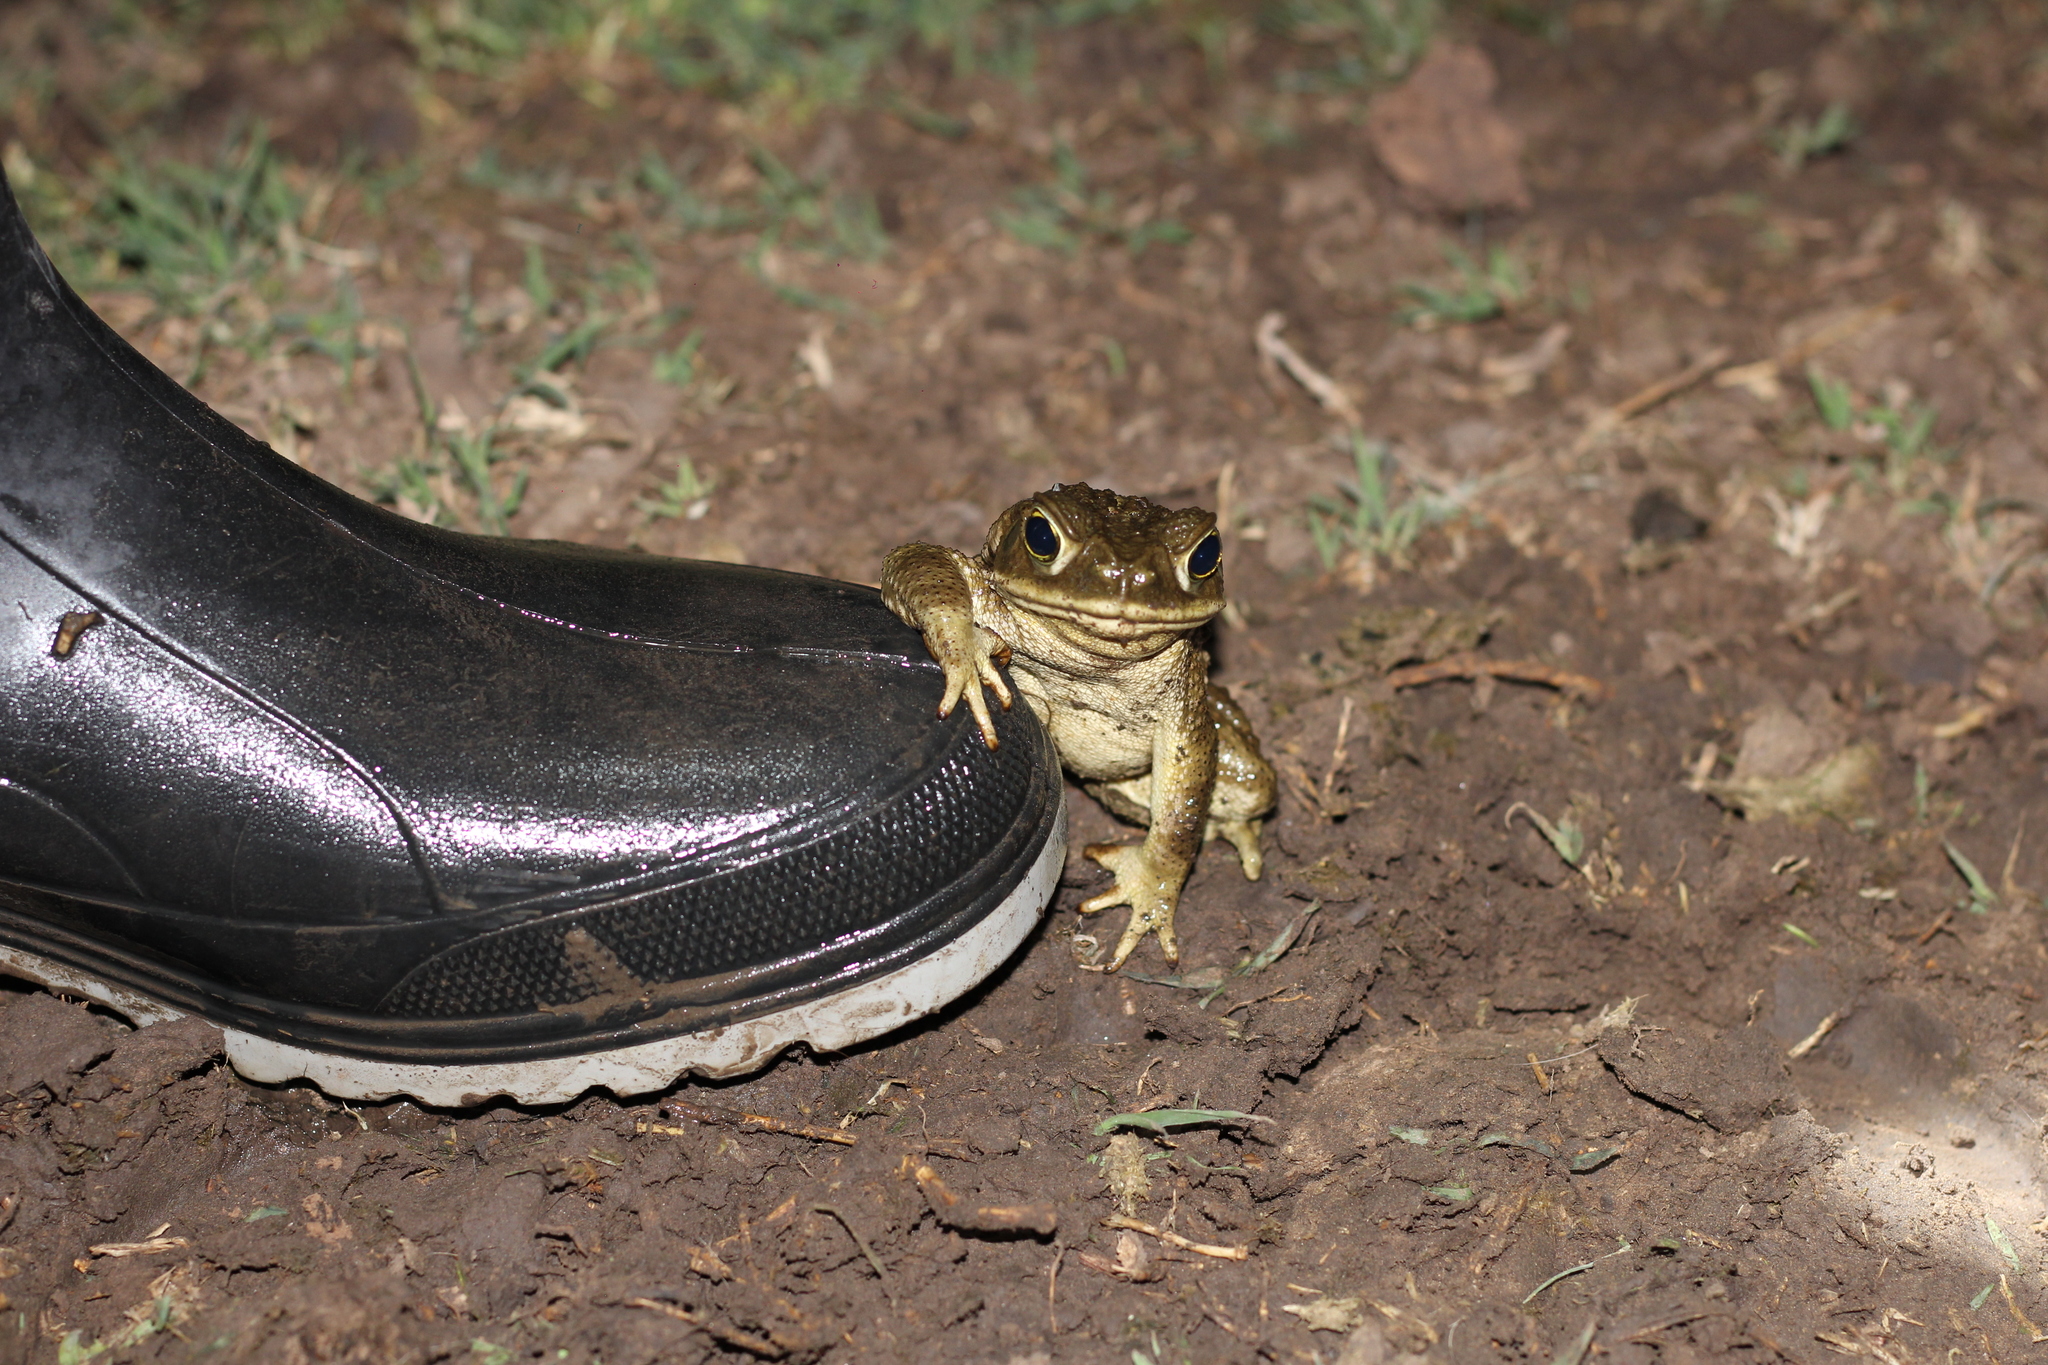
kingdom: Animalia
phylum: Chordata
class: Amphibia
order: Anura
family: Bufonidae
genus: Rhinella
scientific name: Rhinella arenarum
